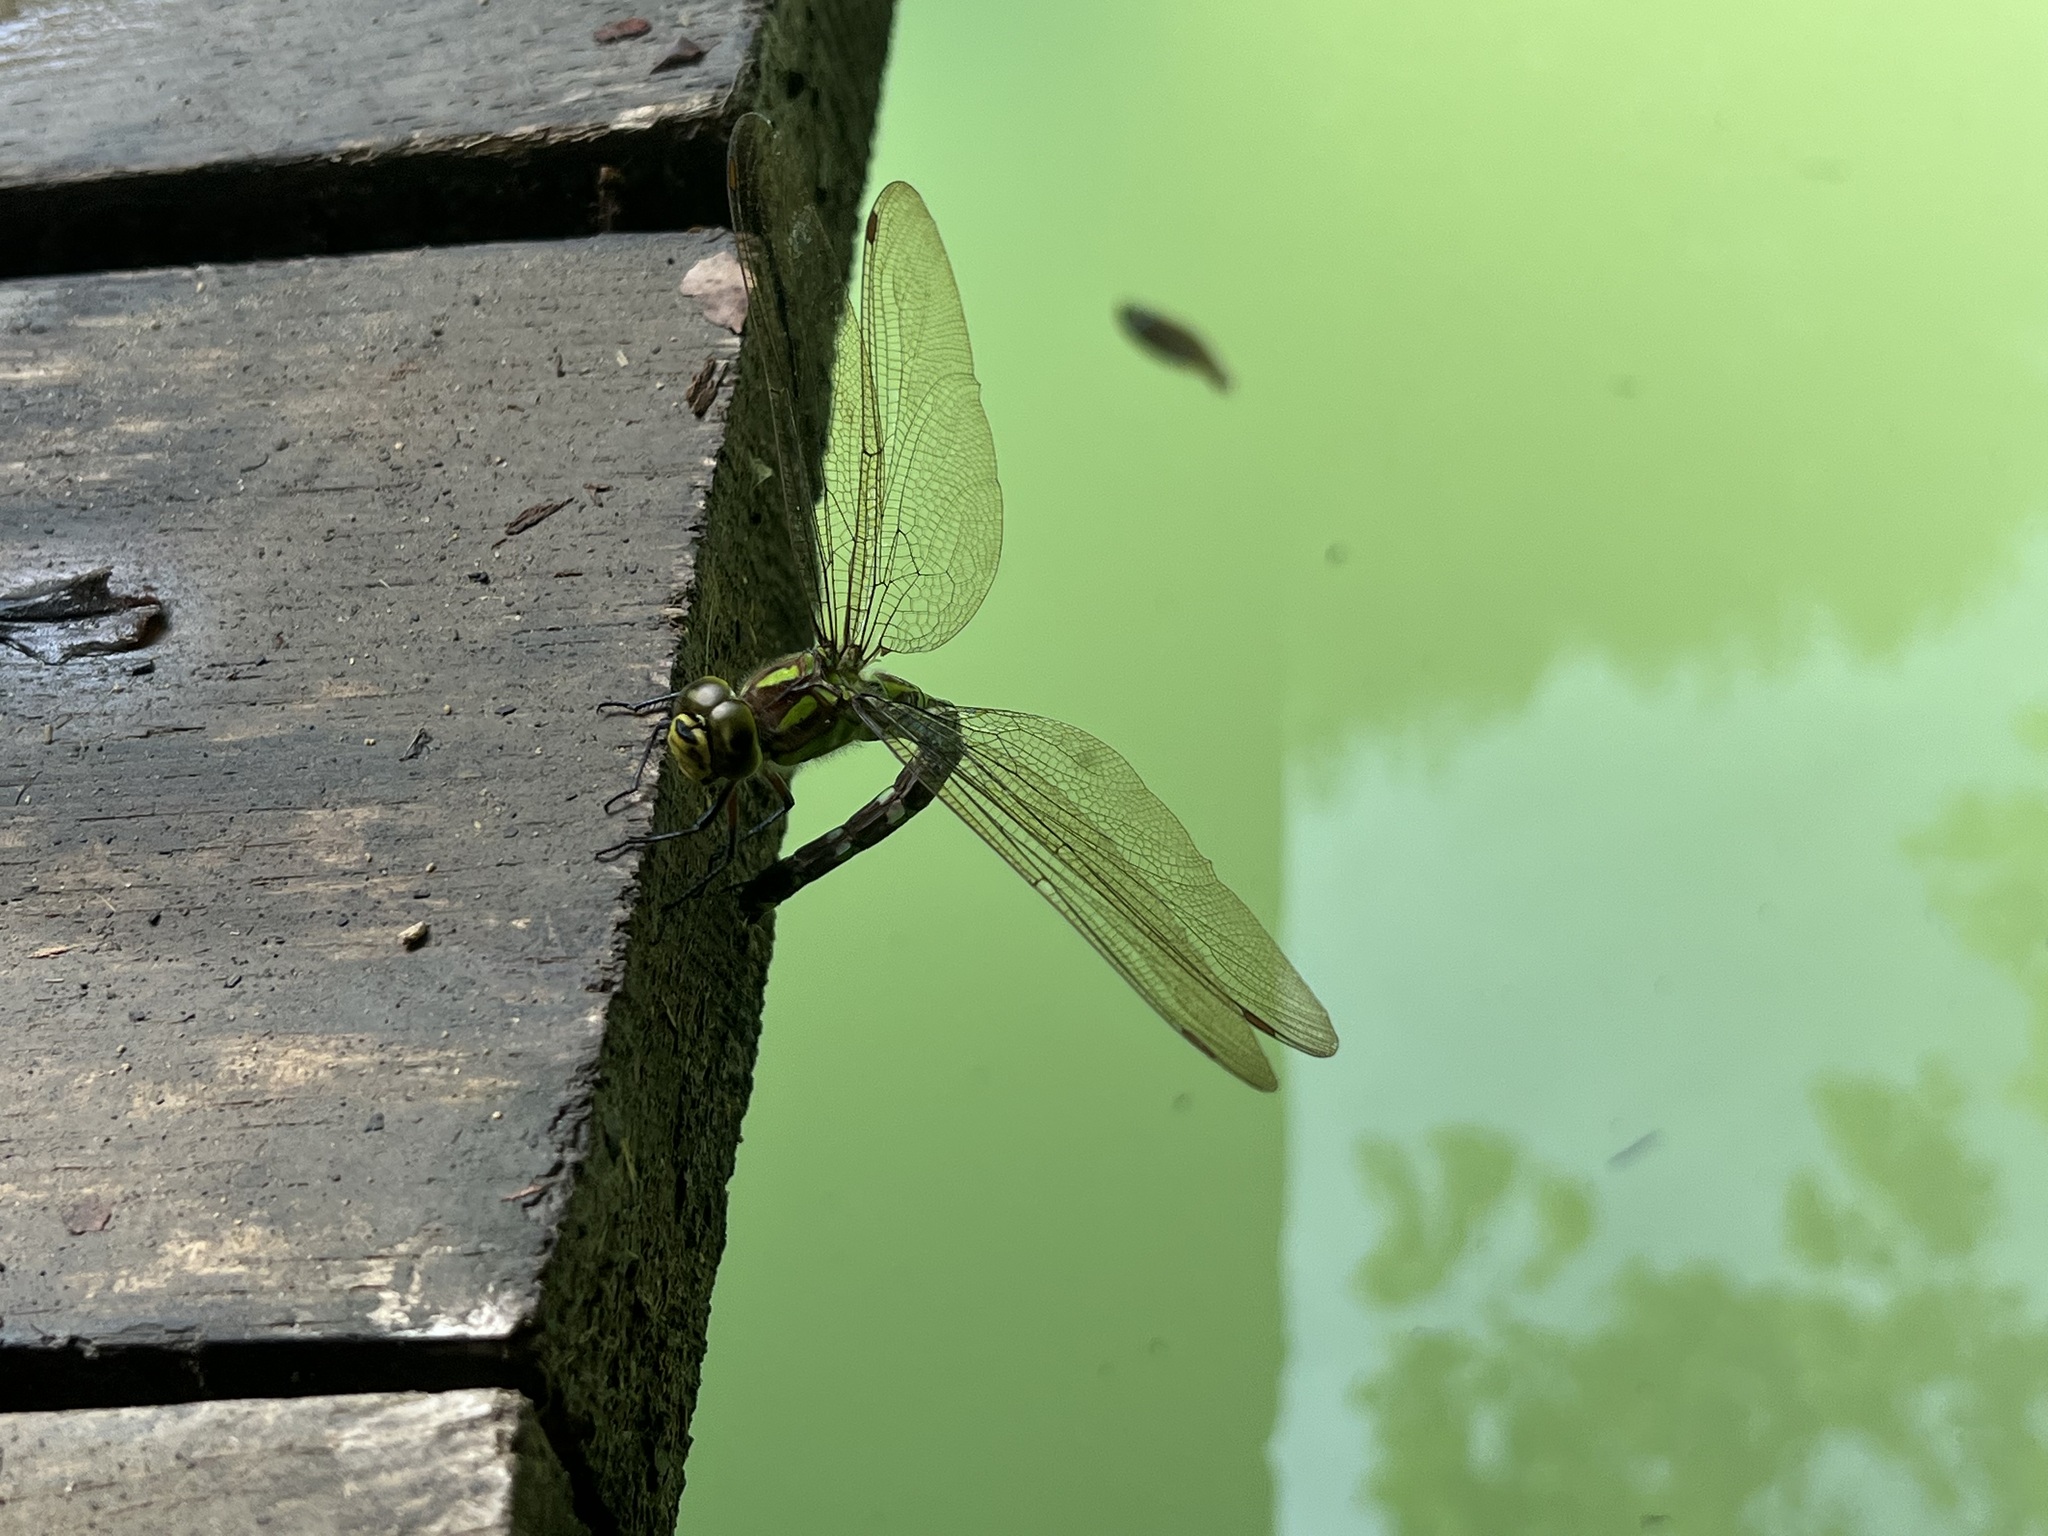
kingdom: Animalia
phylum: Arthropoda
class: Insecta
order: Odonata
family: Aeshnidae
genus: Aeshna
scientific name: Aeshna cyanea
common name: Southern hawker
